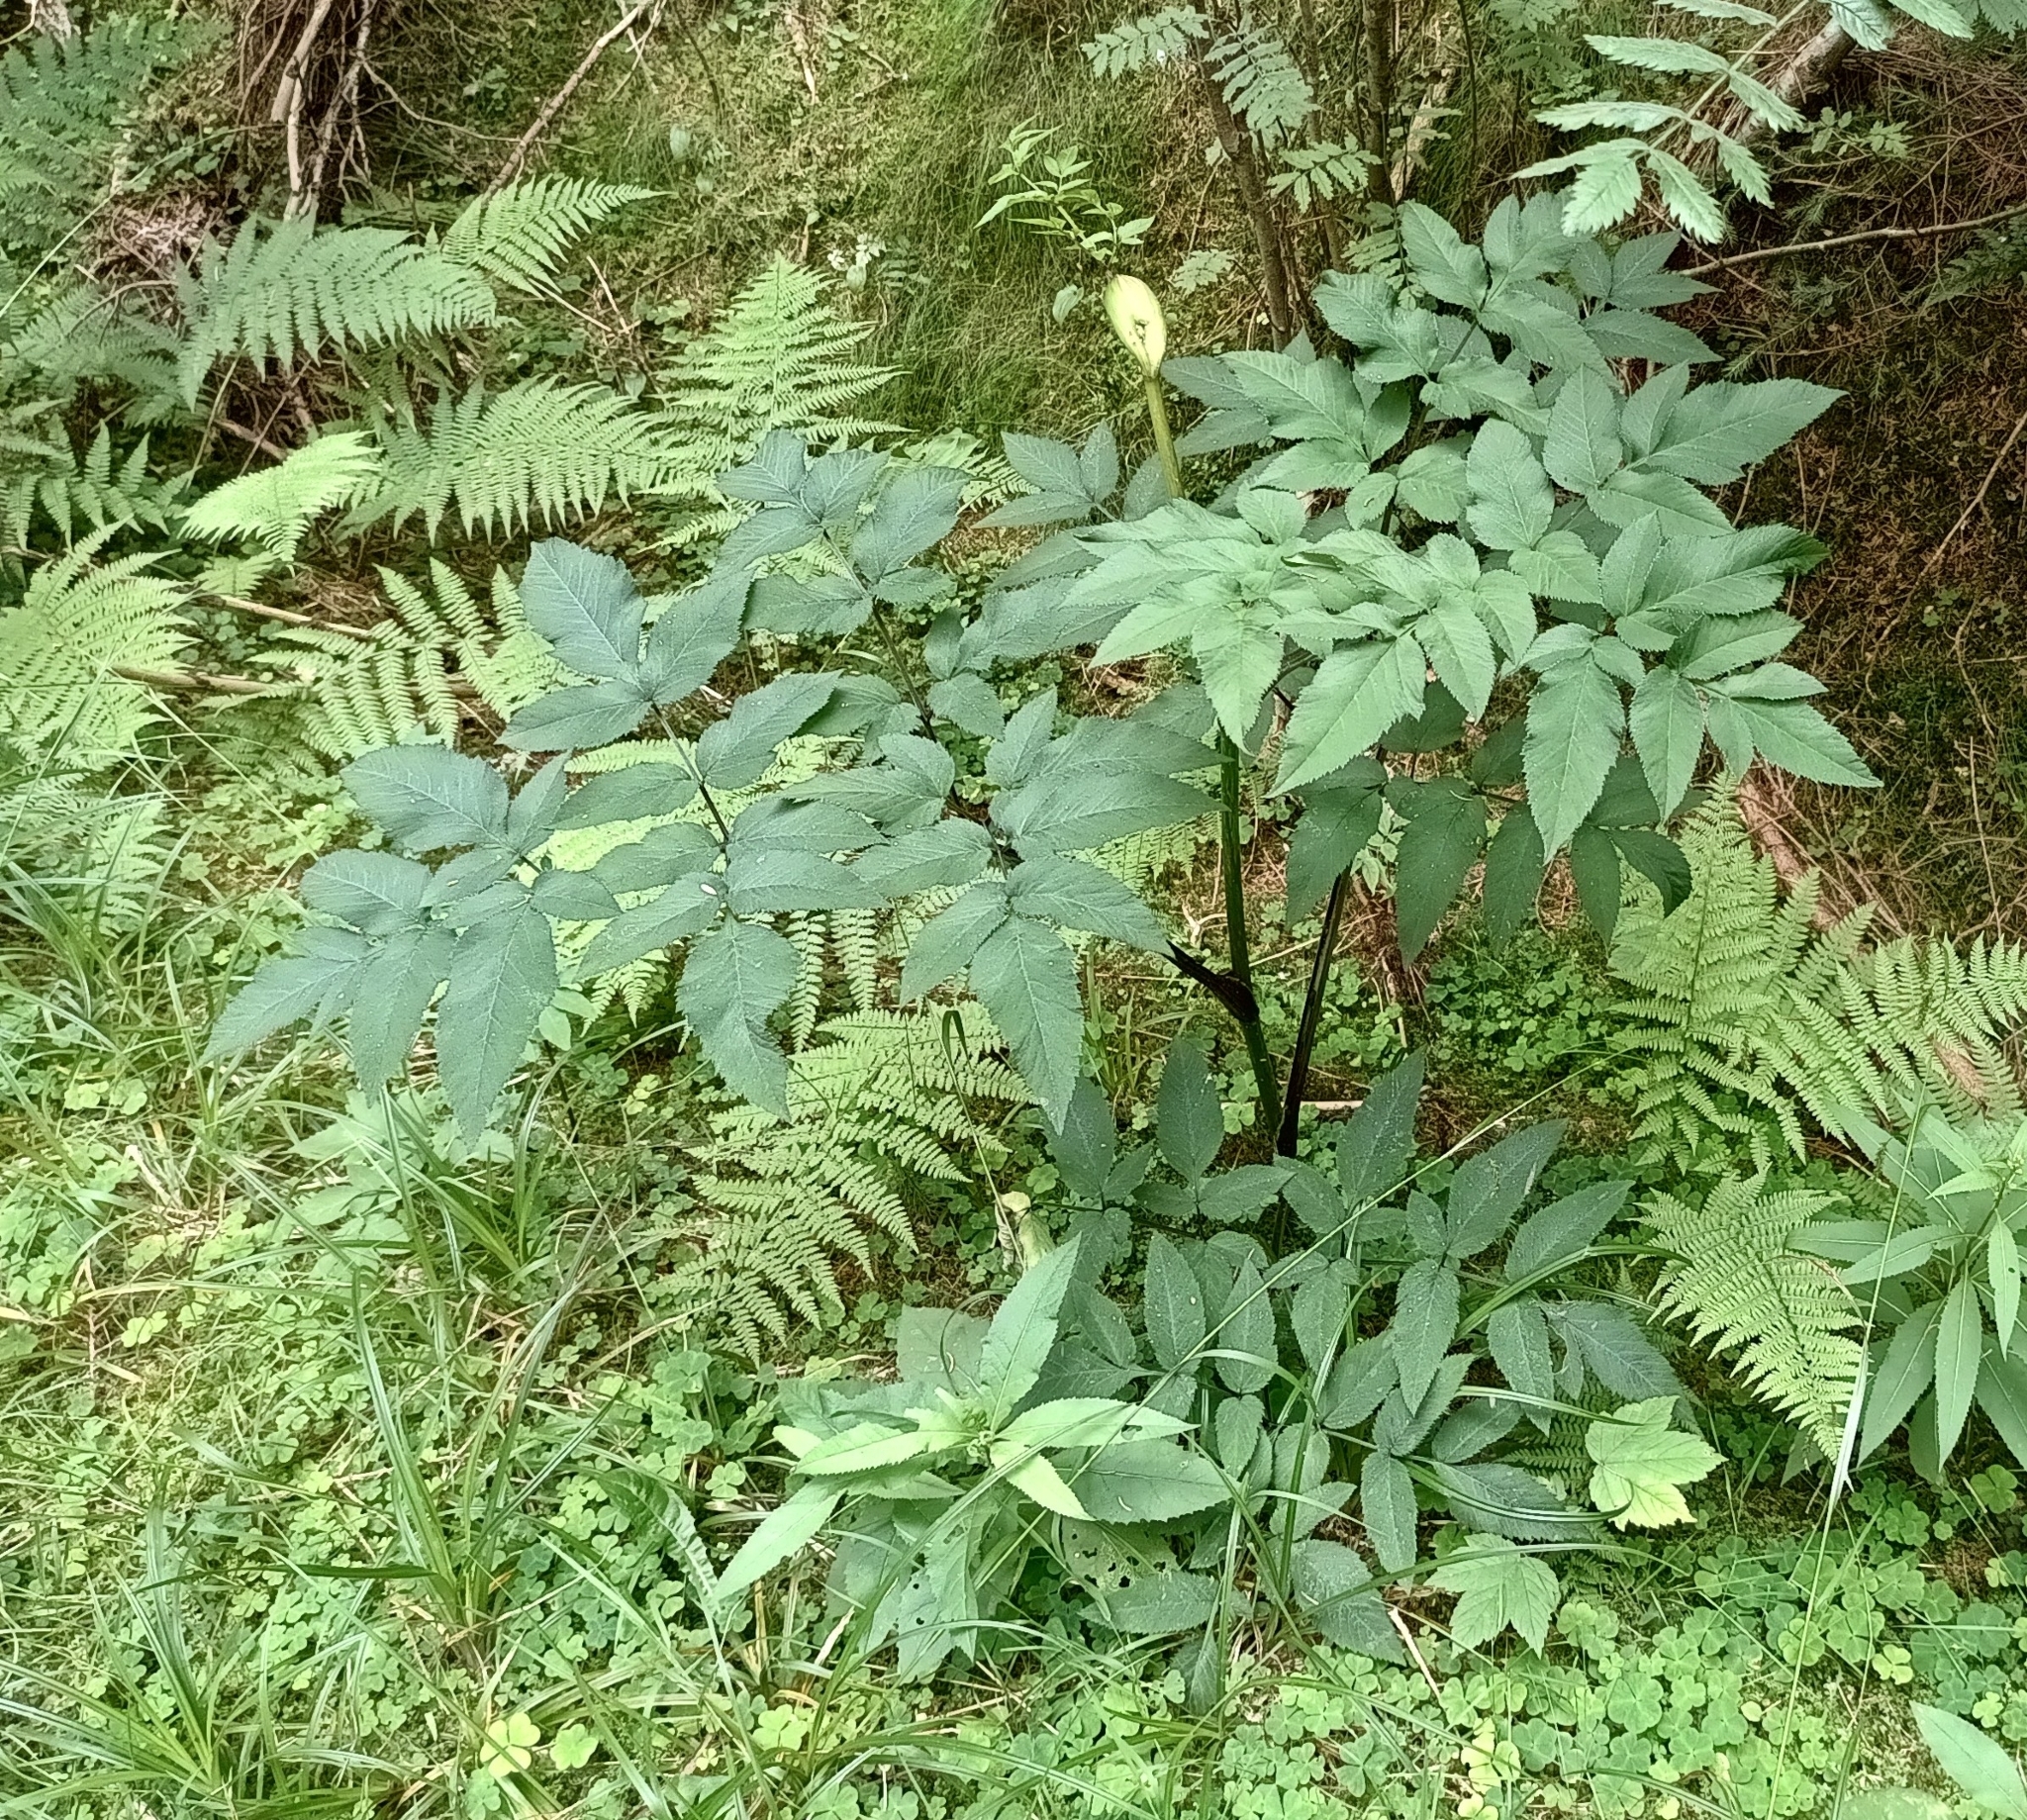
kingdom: Plantae
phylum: Tracheophyta
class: Magnoliopsida
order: Apiales
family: Apiaceae
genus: Angelica
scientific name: Angelica sylvestris
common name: Wild angelica
